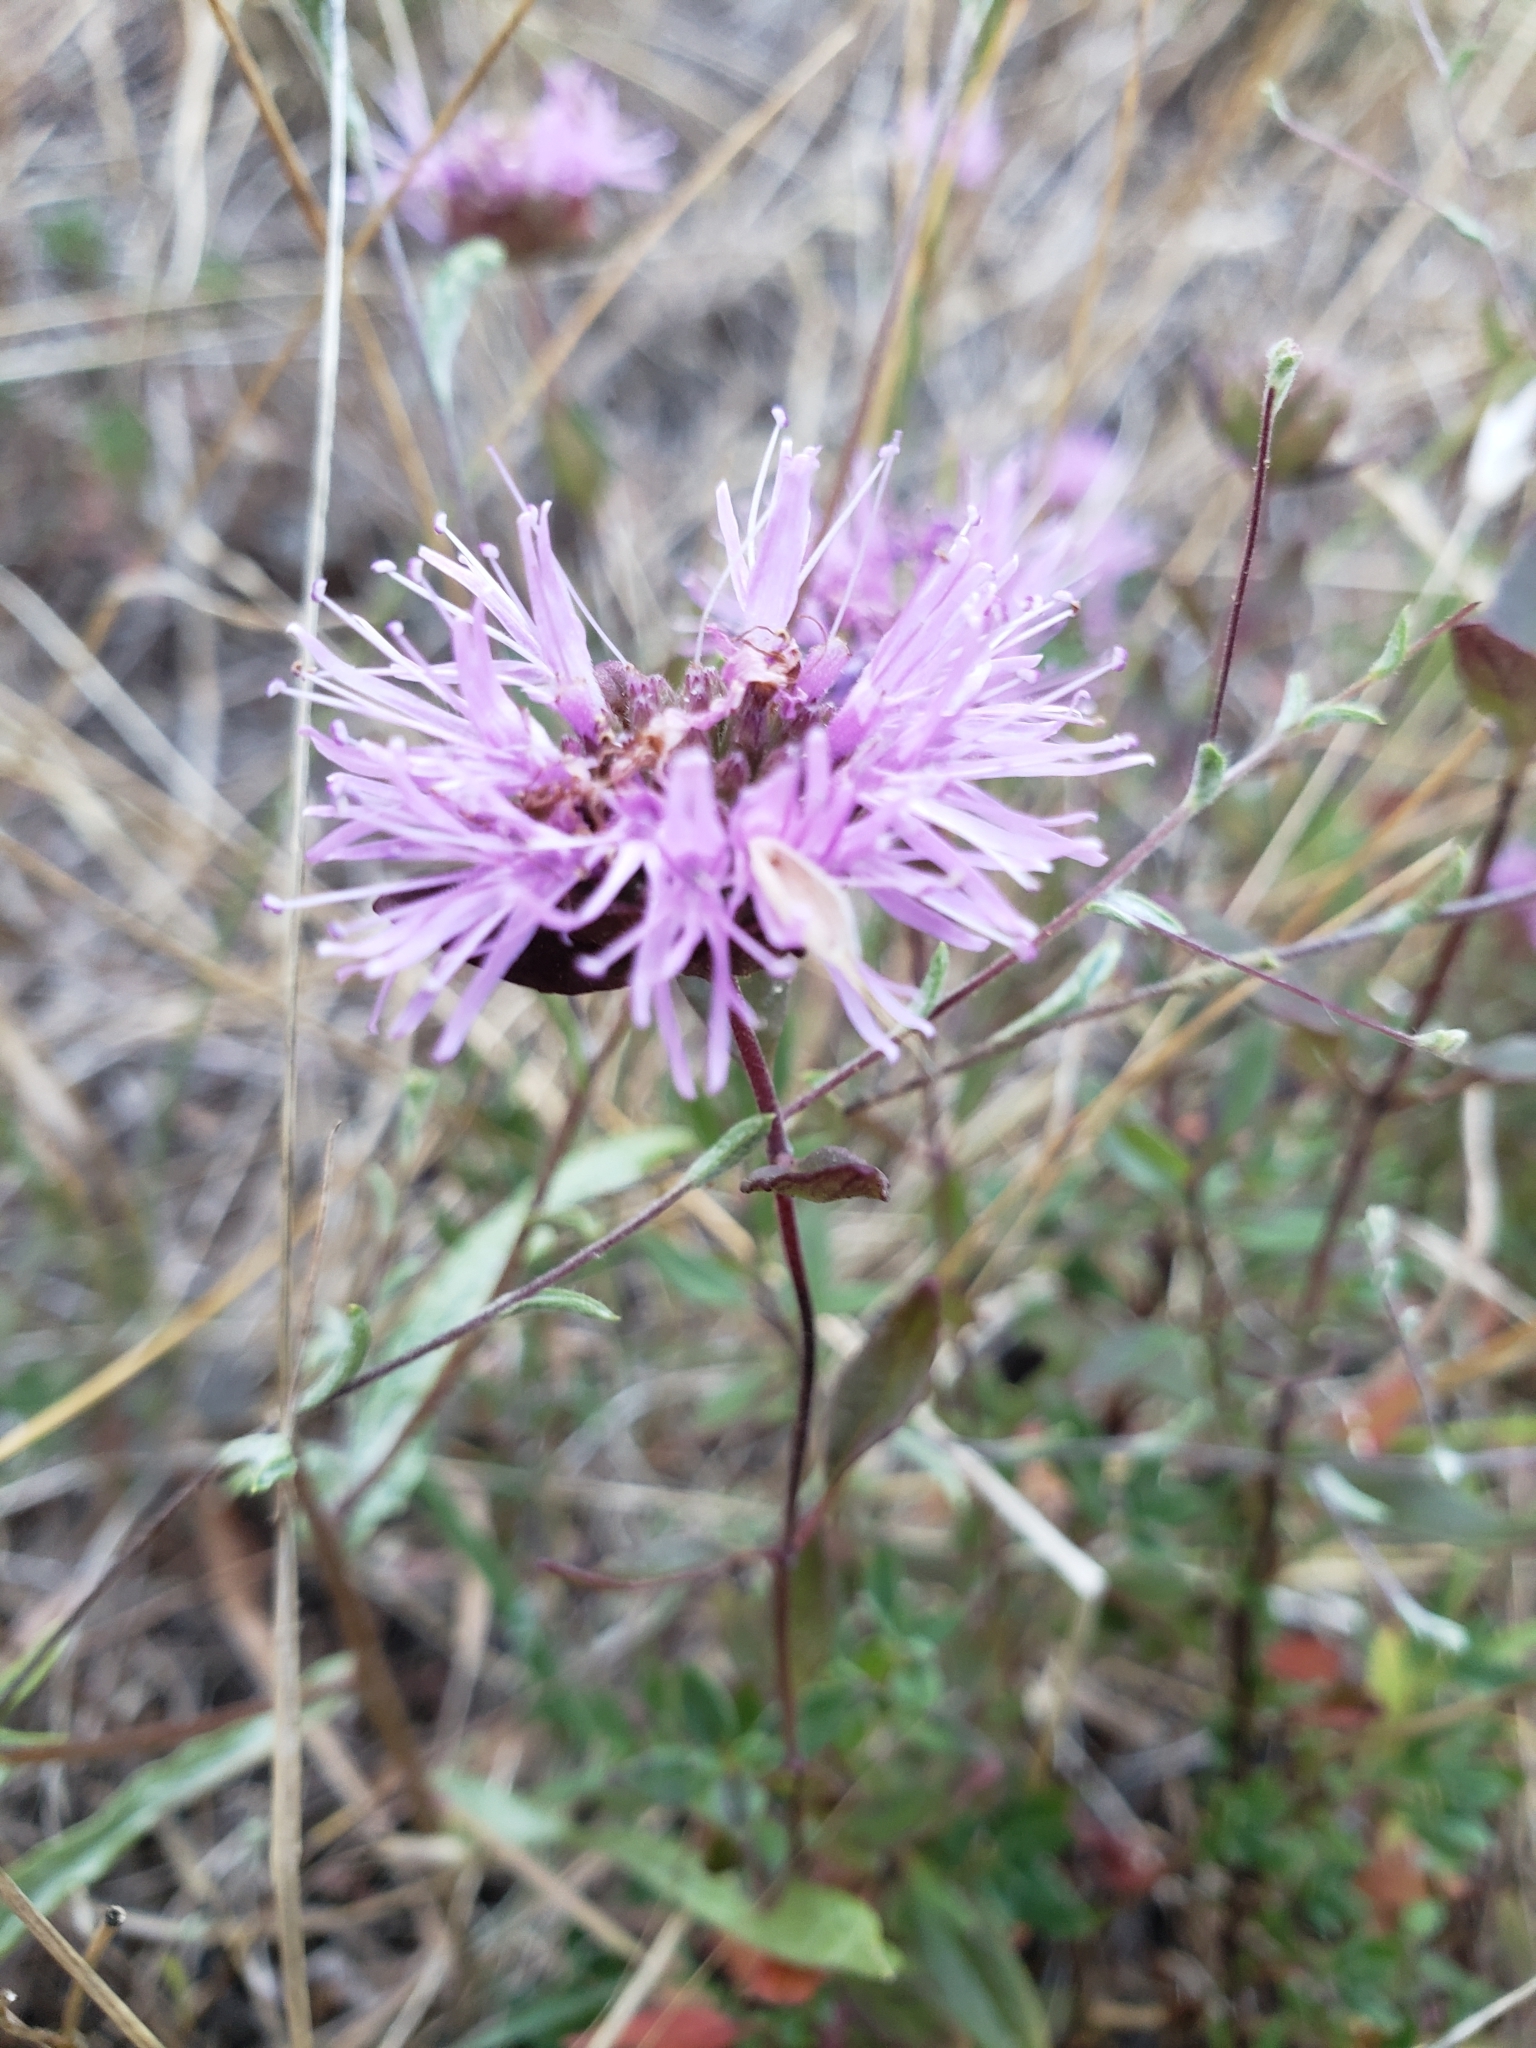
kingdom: Plantae
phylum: Tracheophyta
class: Magnoliopsida
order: Lamiales
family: Lamiaceae
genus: Monardella
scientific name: Monardella odoratissima
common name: Pacific monardella
